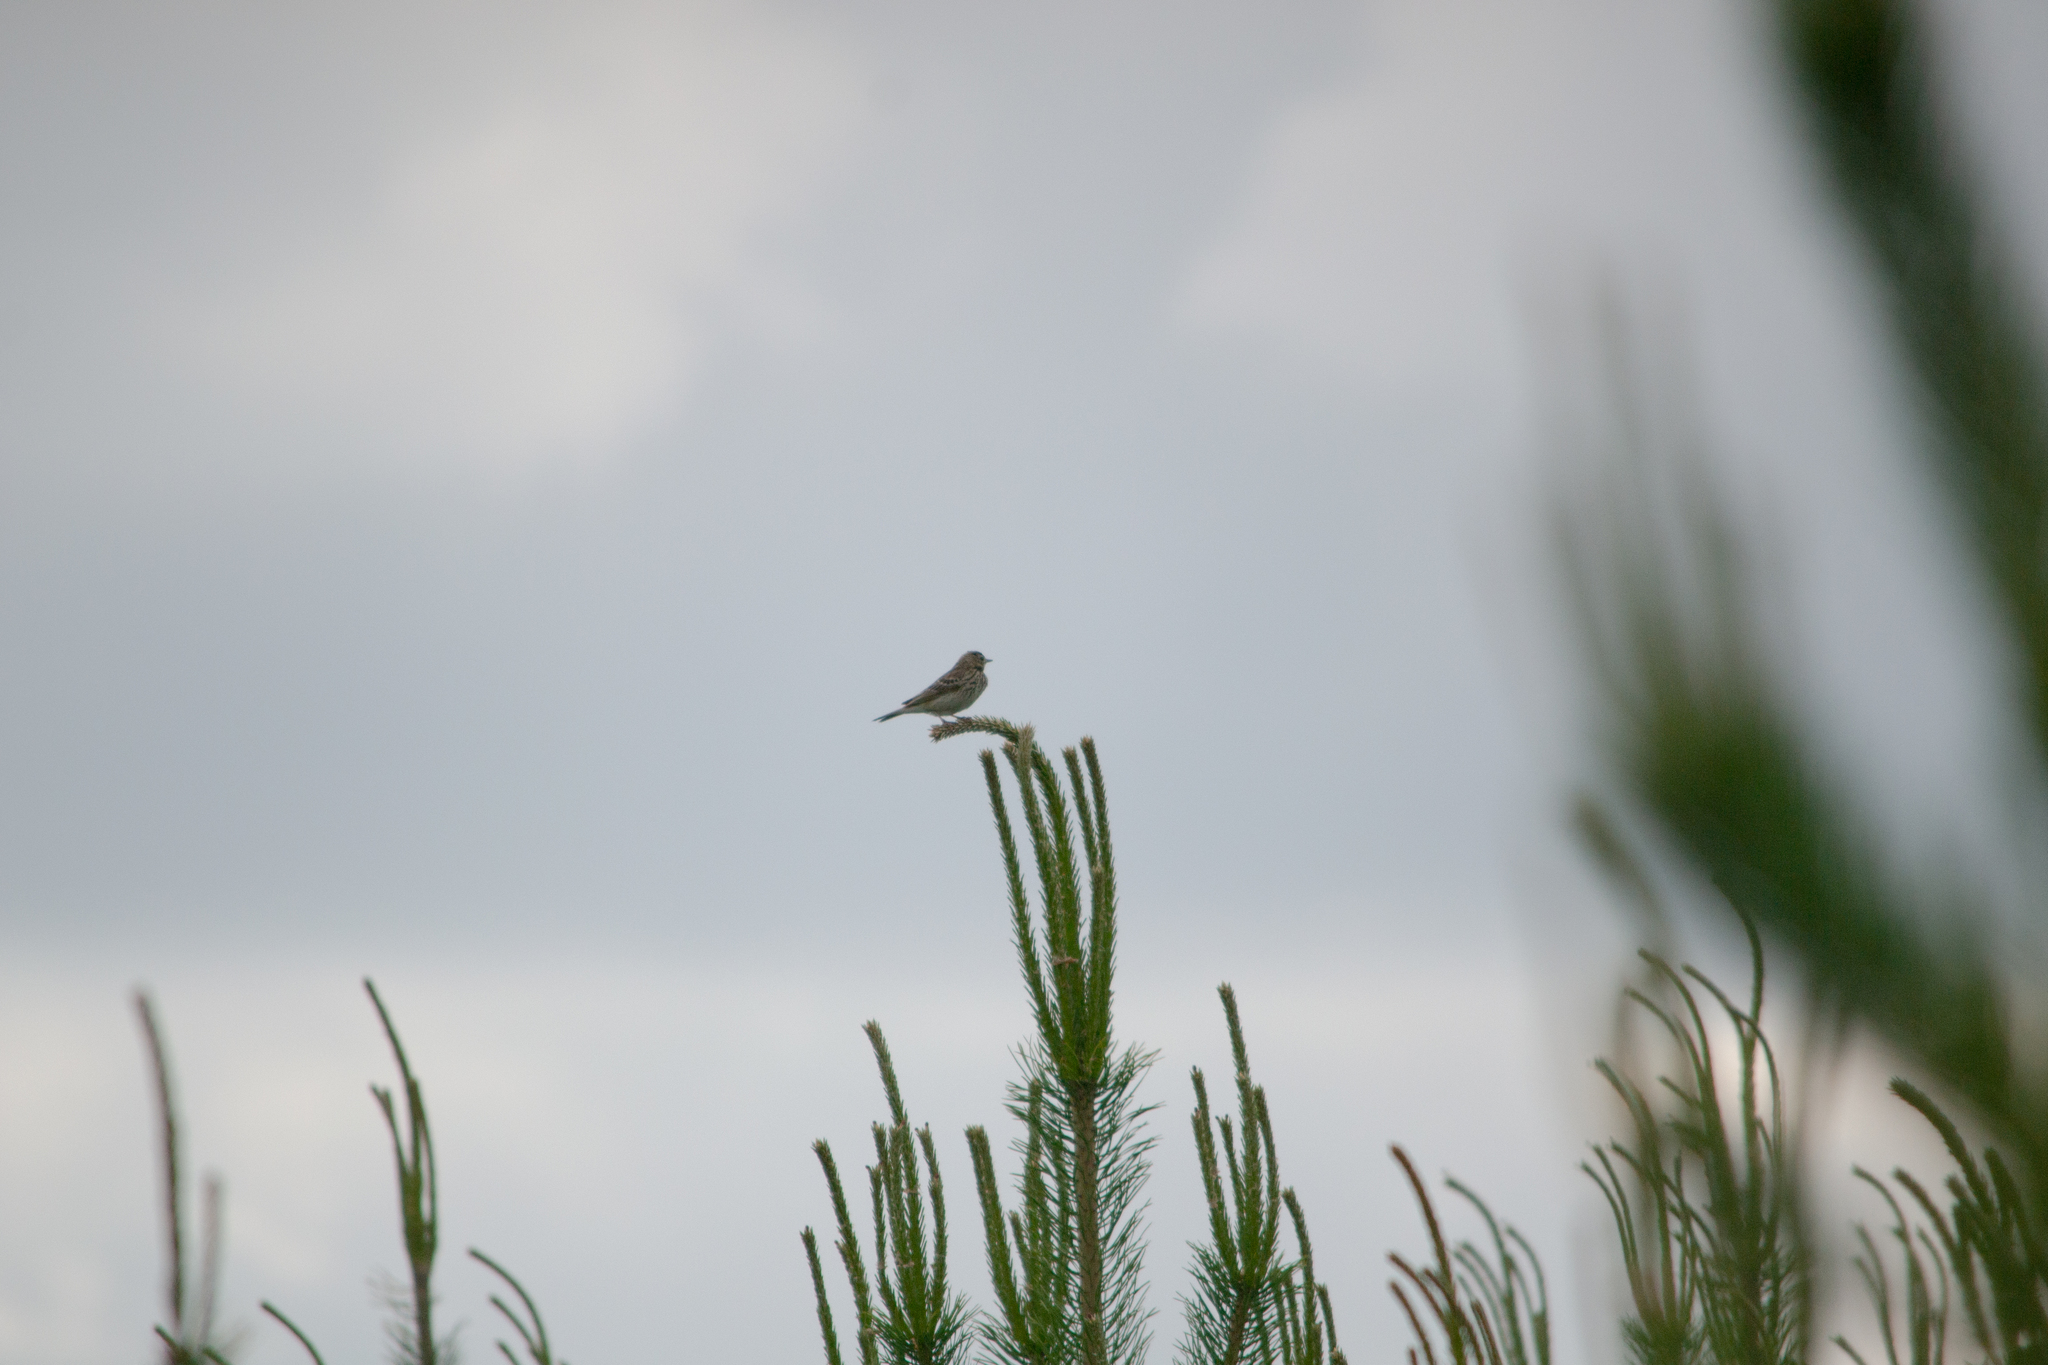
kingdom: Animalia
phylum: Chordata
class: Aves
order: Passeriformes
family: Motacillidae
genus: Anthus
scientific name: Anthus trivialis
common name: Tree pipit
